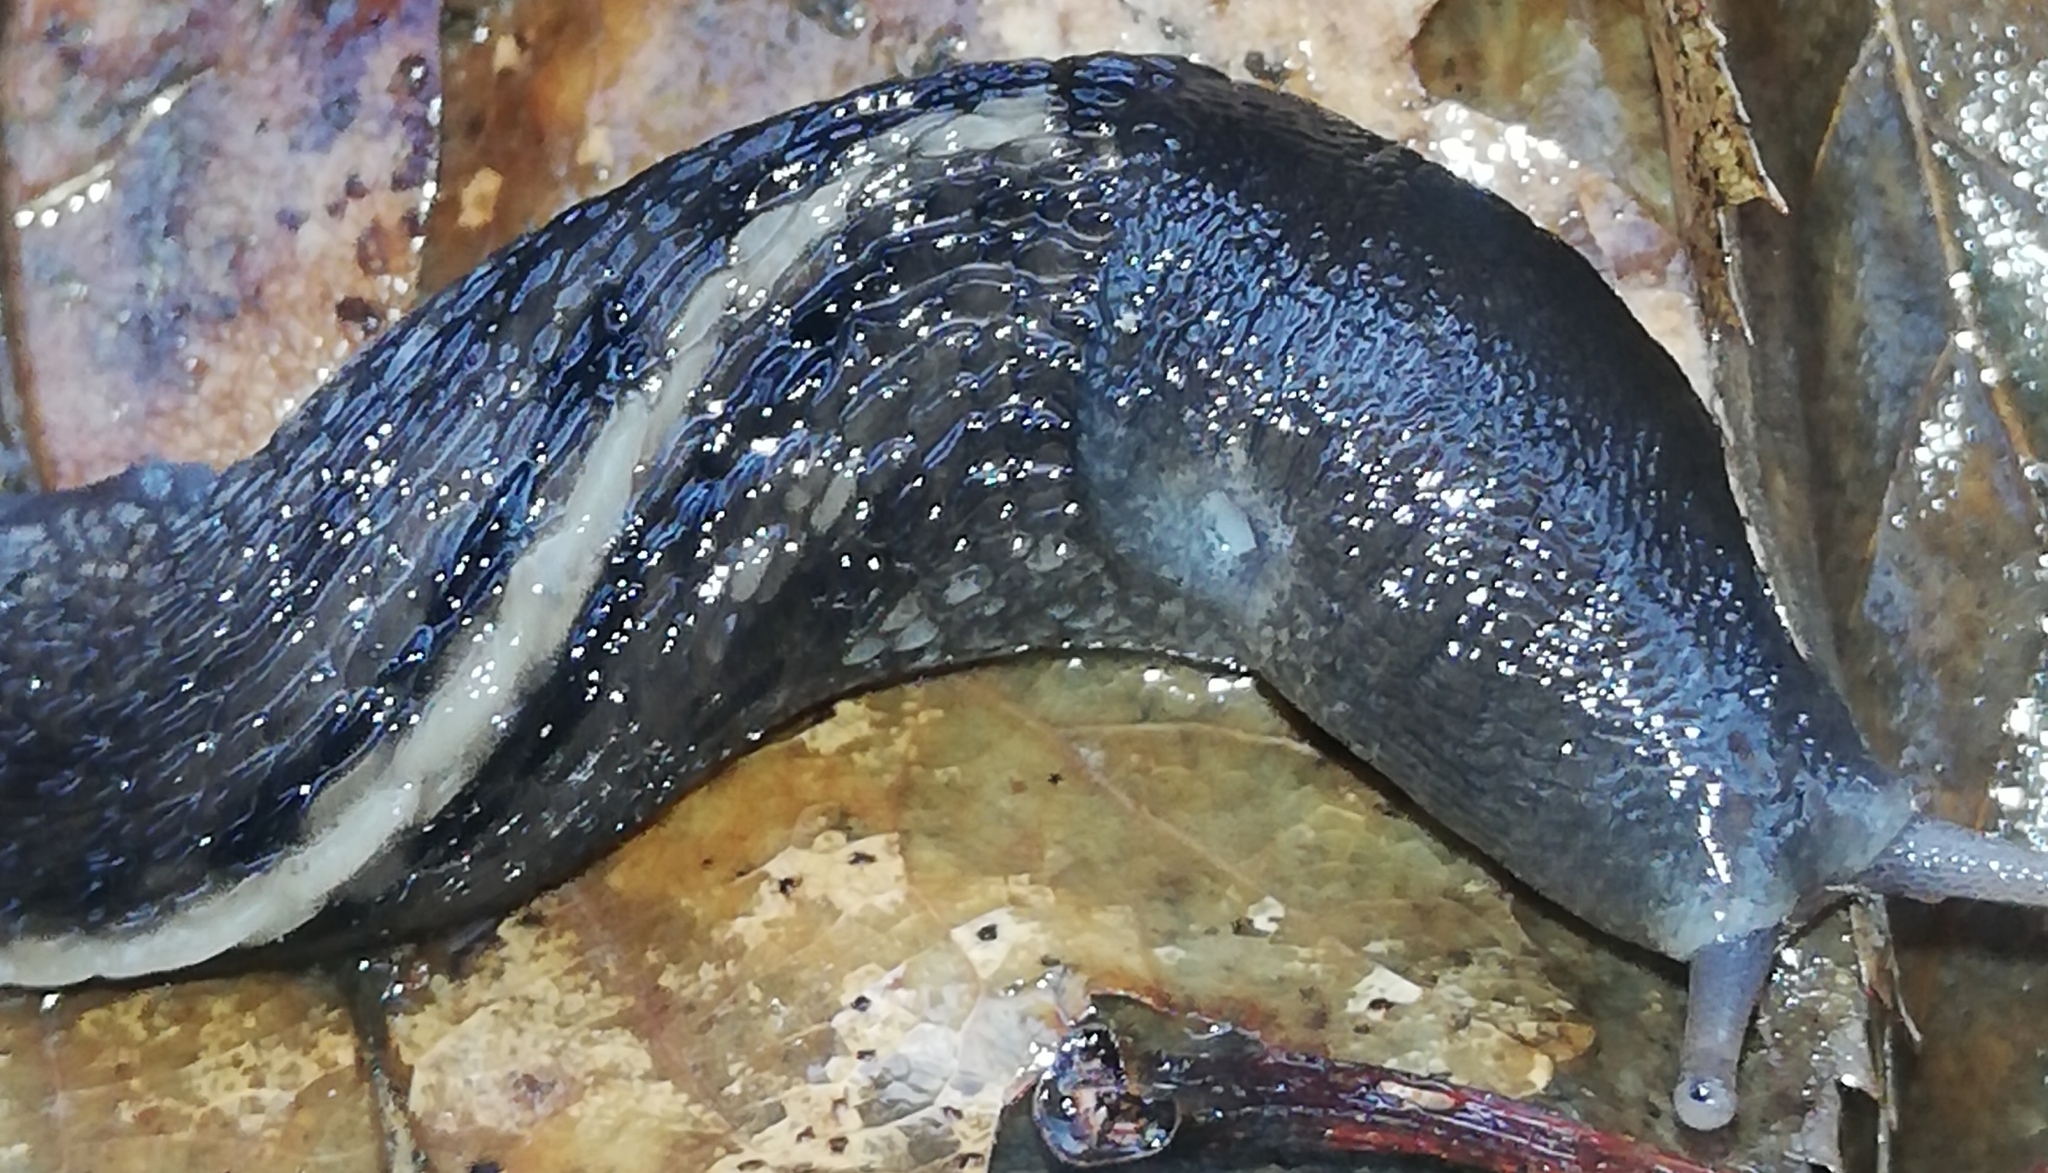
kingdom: Animalia
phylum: Mollusca
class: Gastropoda
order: Stylommatophora
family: Limacidae
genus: Limax
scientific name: Limax cinereoniger
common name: Ash-black slug
